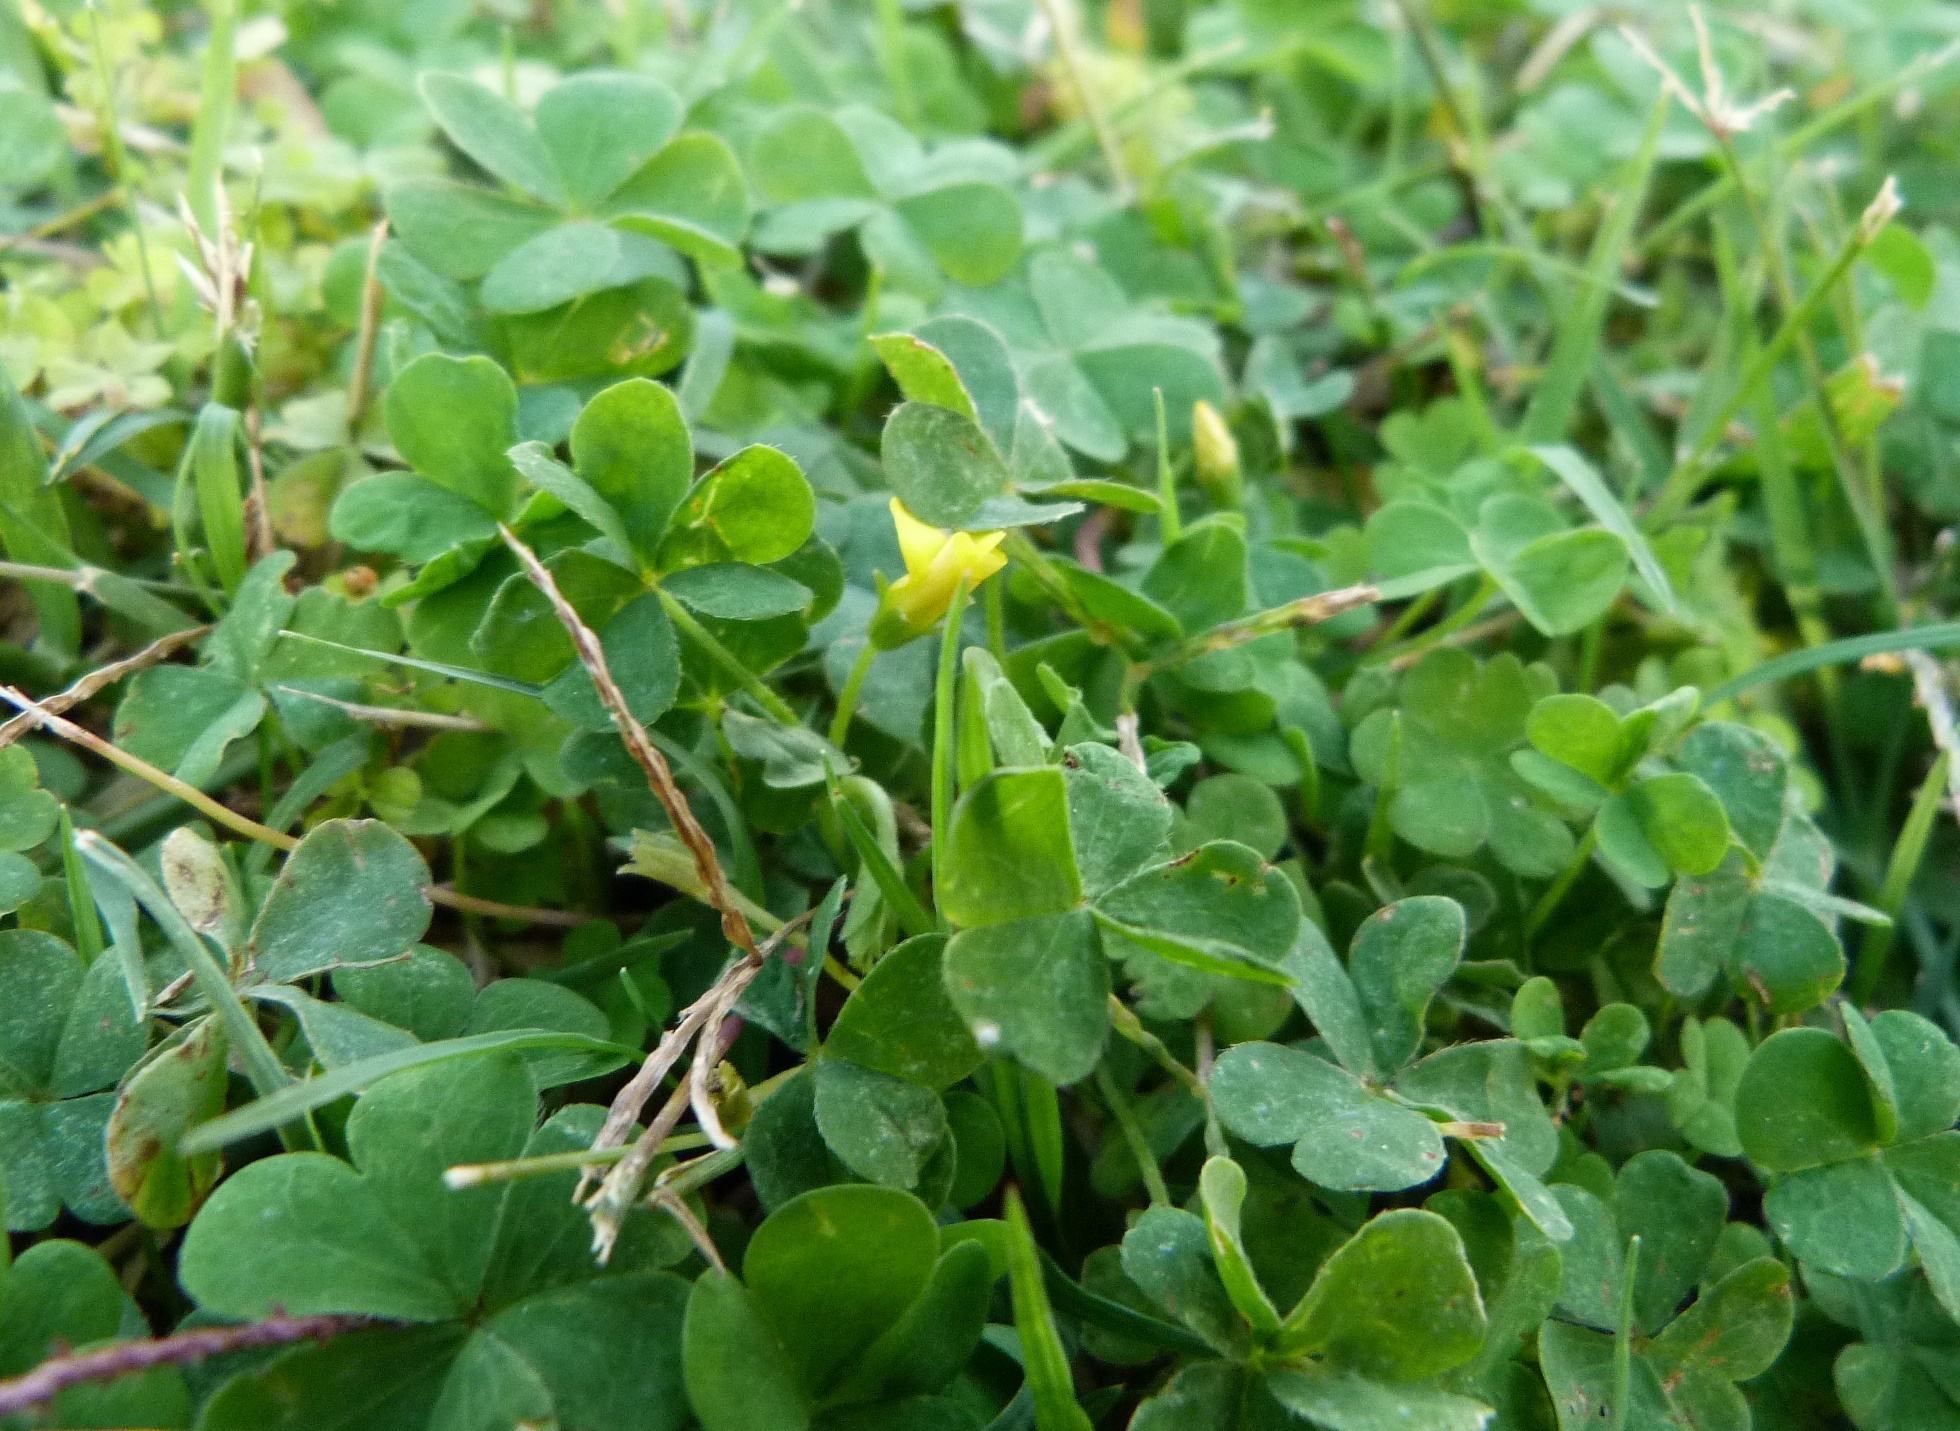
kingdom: Plantae
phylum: Tracheophyta
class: Magnoliopsida
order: Oxalidales
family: Oxalidaceae
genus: Oxalis
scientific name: Oxalis corniculata
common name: Procumbent yellow-sorrel
